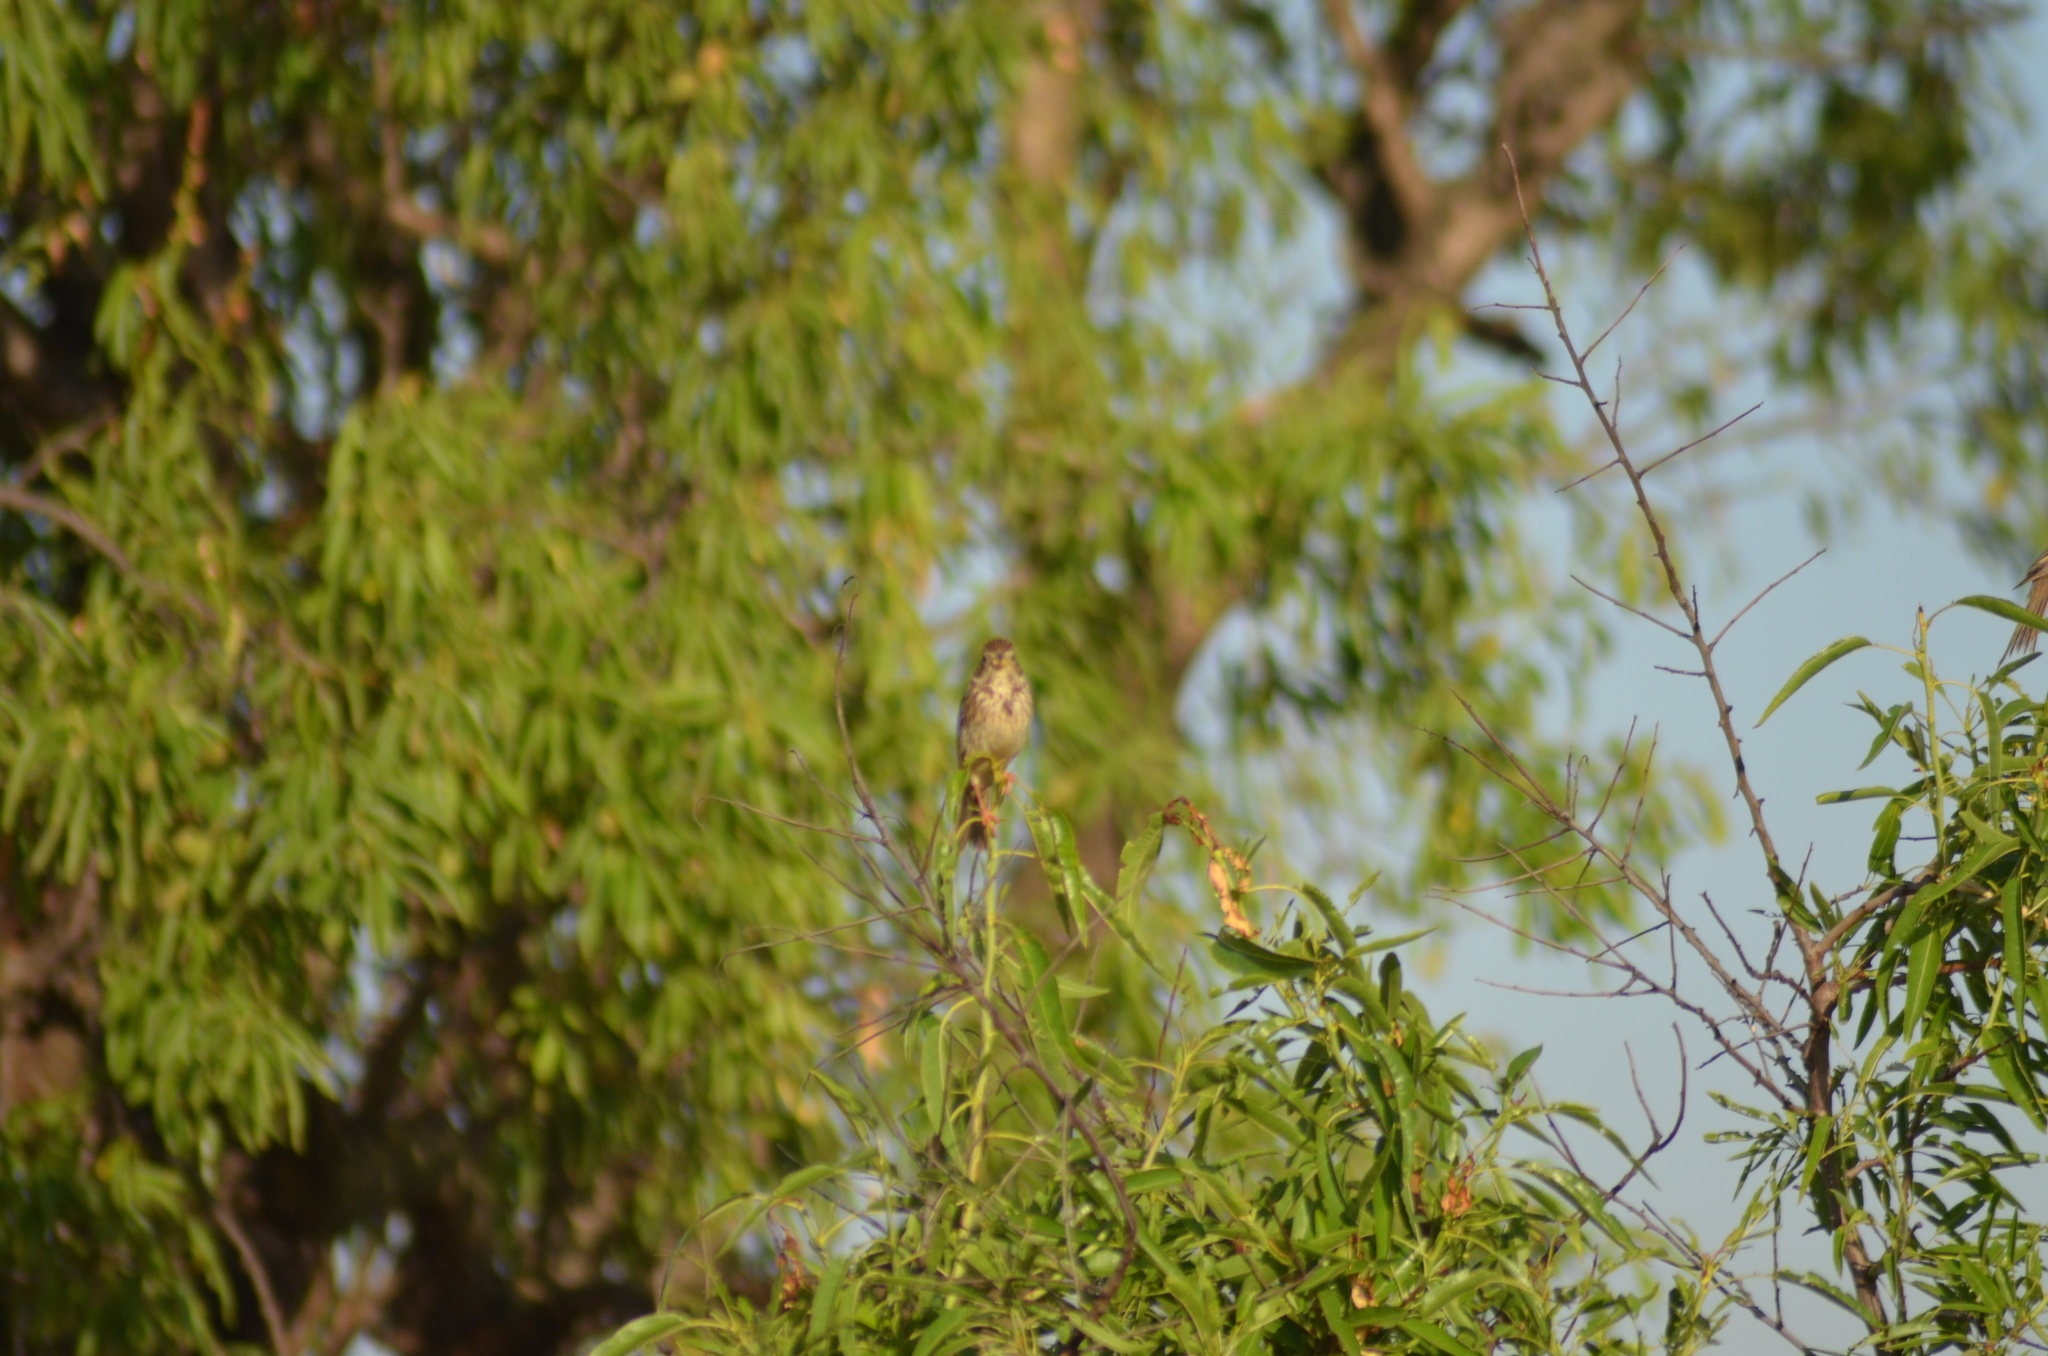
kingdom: Animalia
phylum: Chordata
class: Aves
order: Passeriformes
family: Emberizidae
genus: Emberiza
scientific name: Emberiza calandra
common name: Corn bunting
